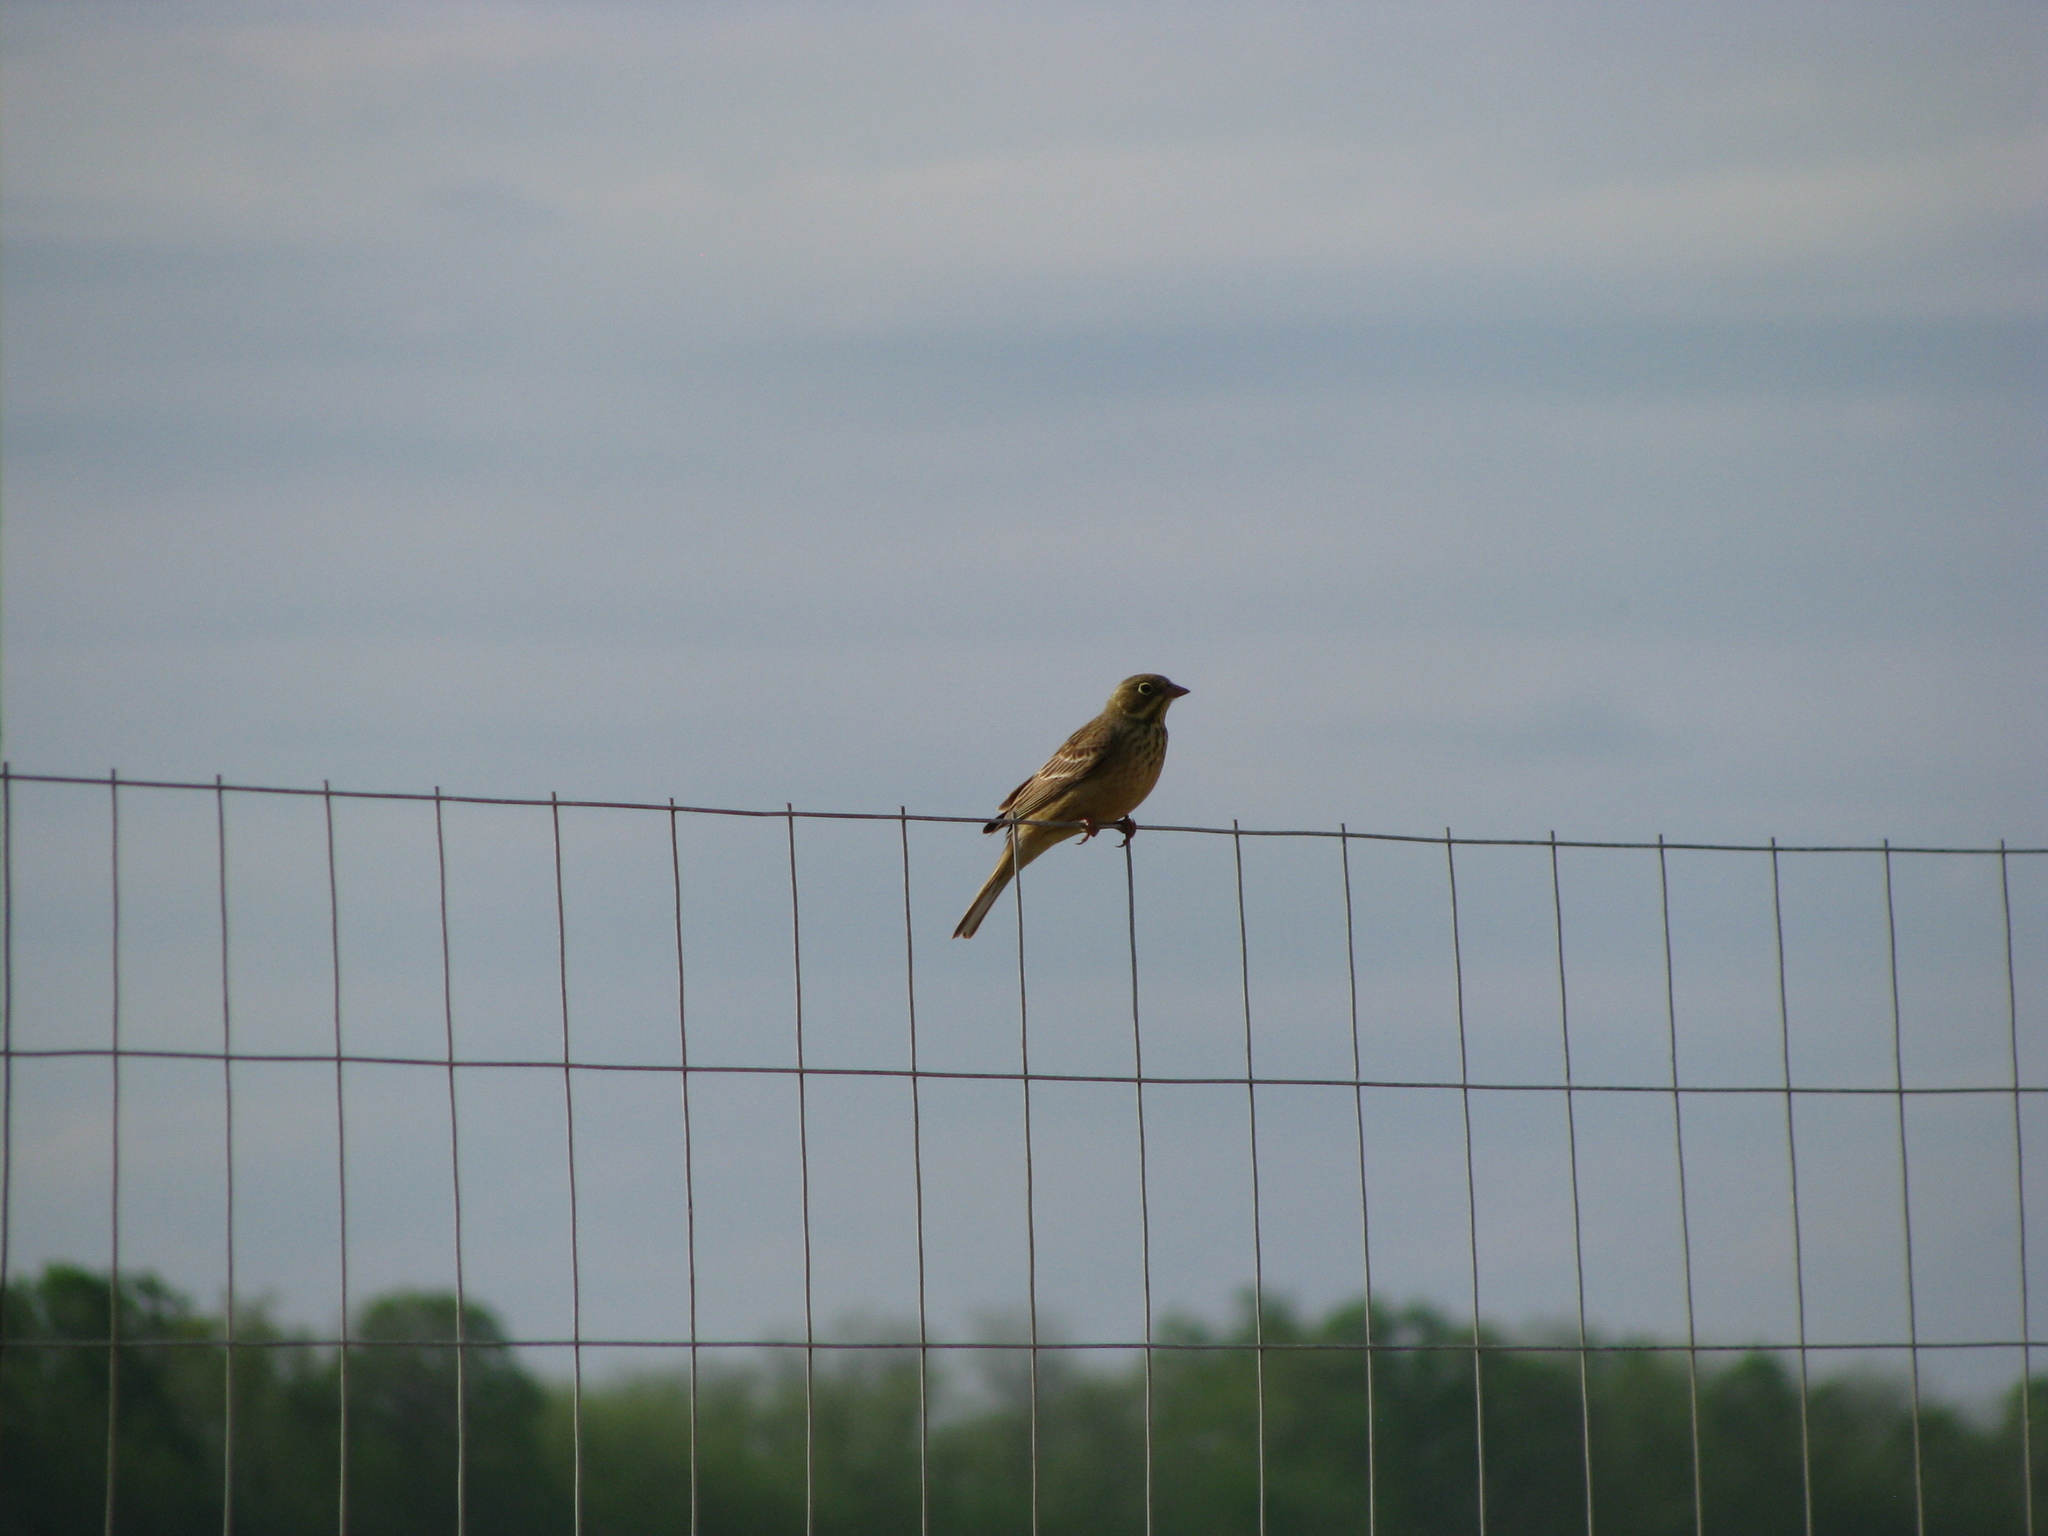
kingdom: Animalia
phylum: Chordata
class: Aves
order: Passeriformes
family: Emberizidae
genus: Emberiza
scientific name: Emberiza hortulana
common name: Ortolan bunting
